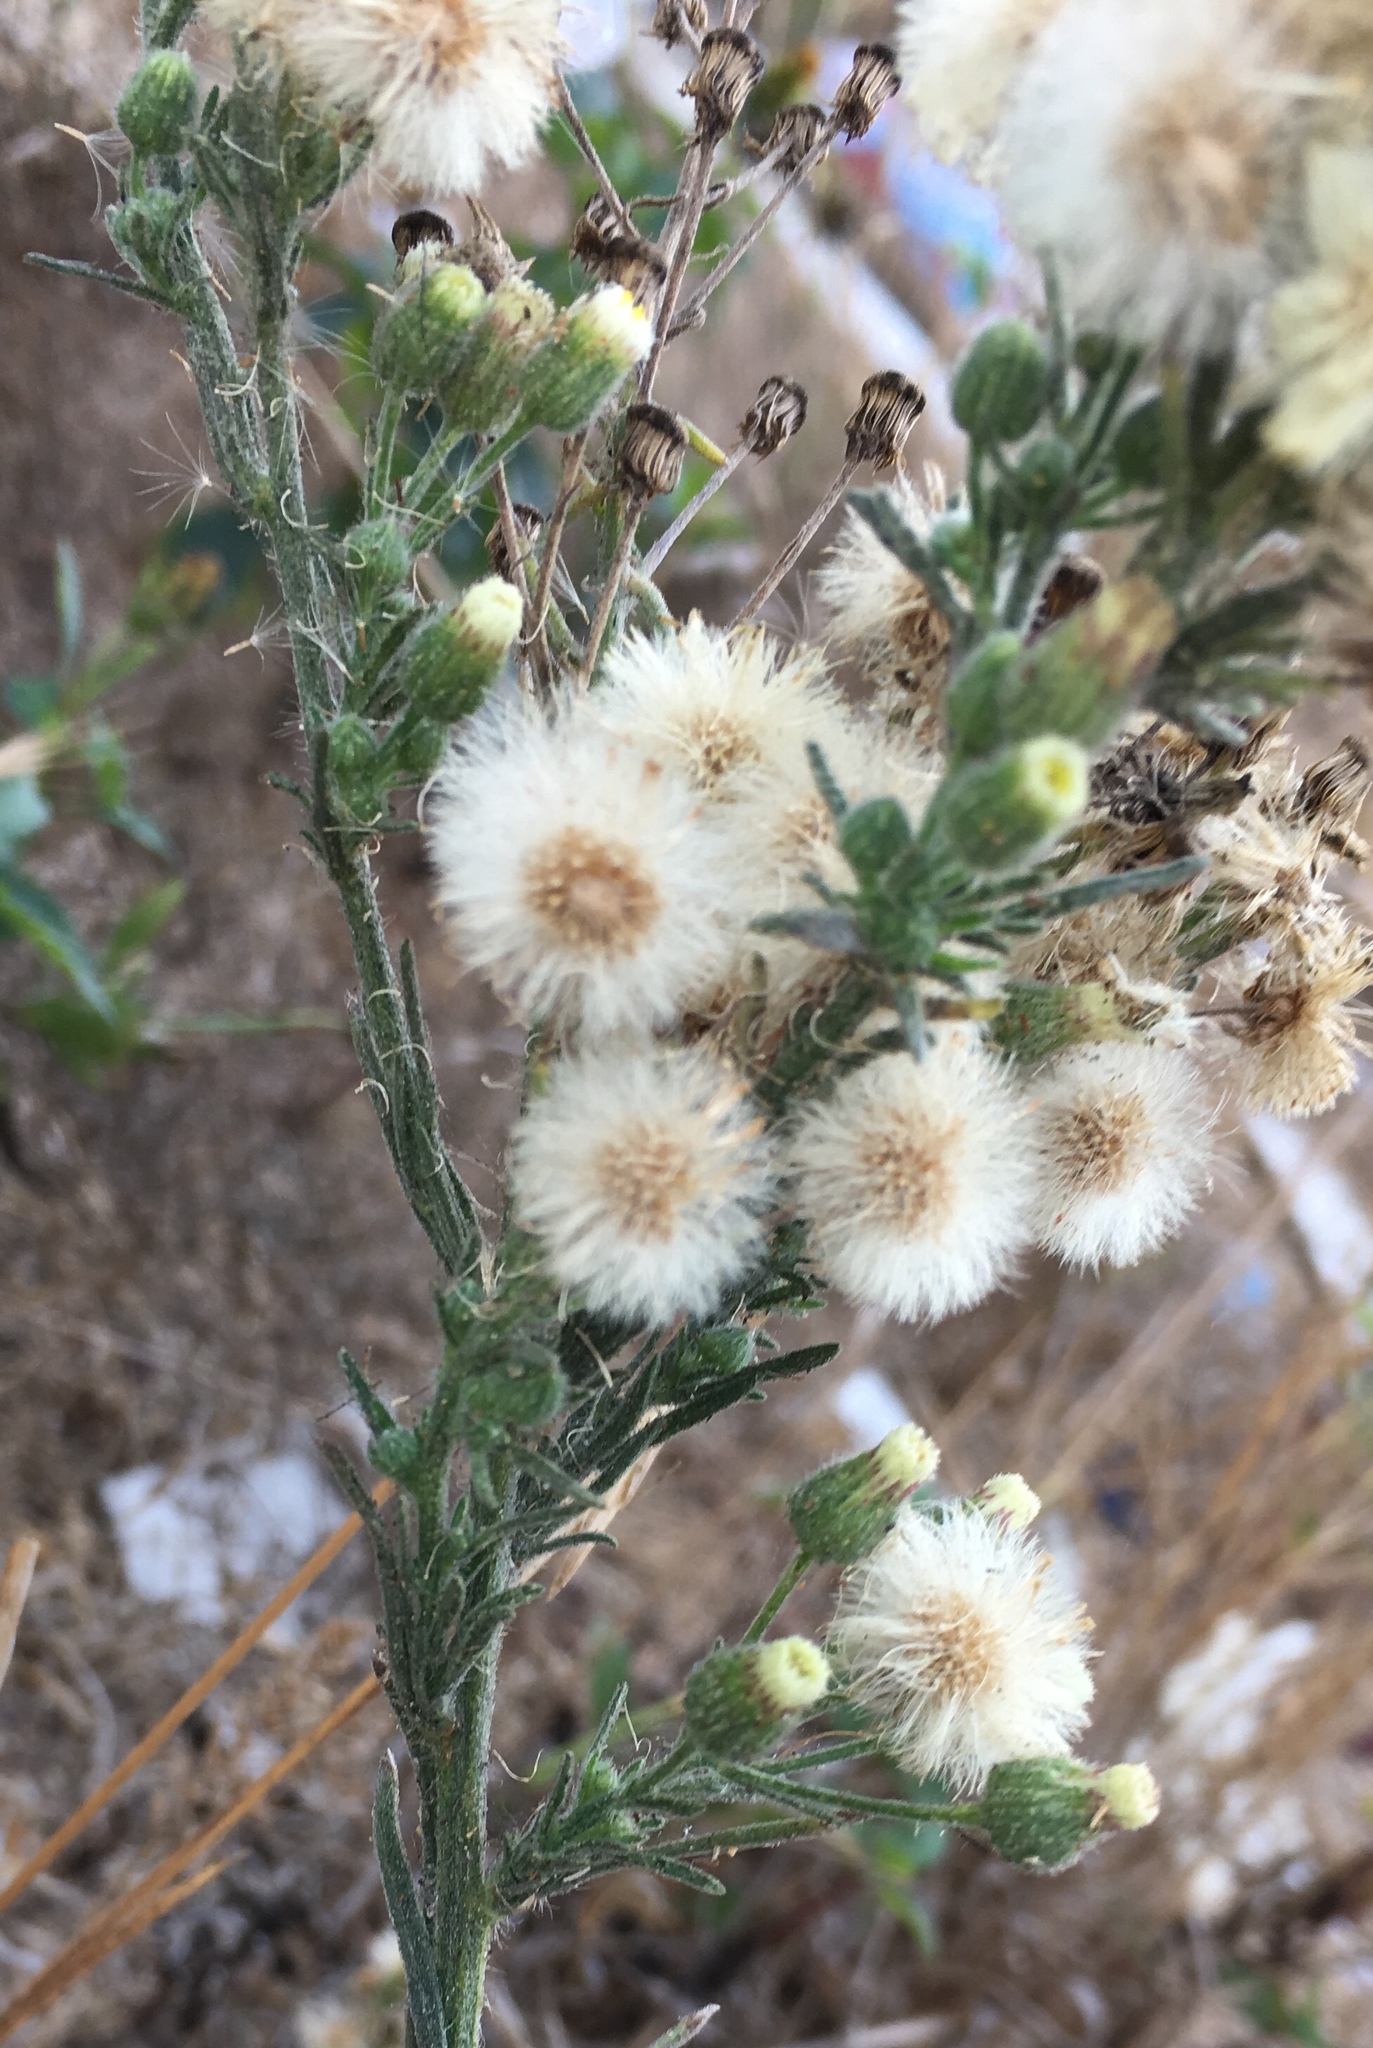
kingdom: Plantae
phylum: Tracheophyta
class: Magnoliopsida
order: Asterales
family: Asteraceae
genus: Erigeron
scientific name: Erigeron bonariensis
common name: Argentine fleabane
